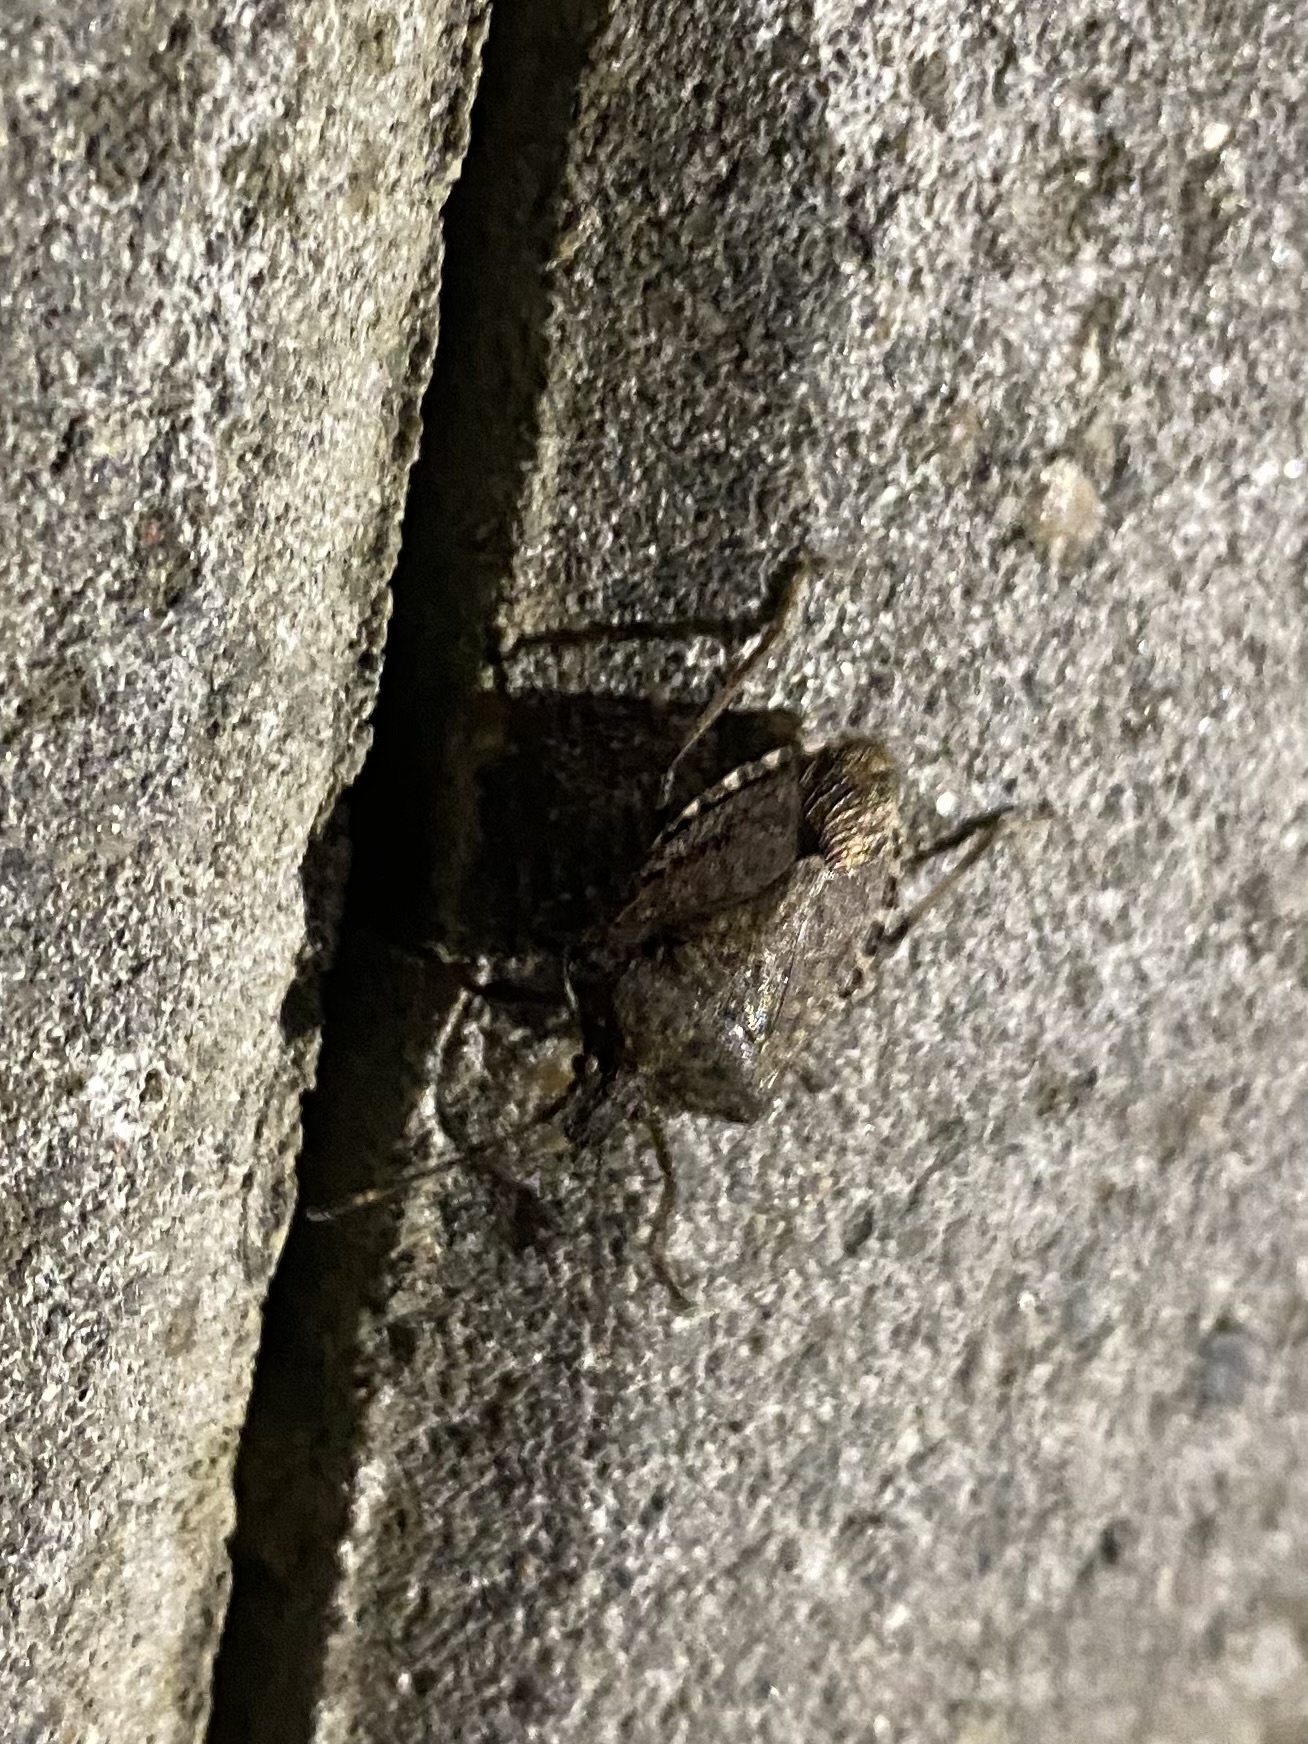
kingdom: Animalia
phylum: Arthropoda
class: Insecta
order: Hemiptera
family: Pentatomidae
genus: Halyomorpha
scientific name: Halyomorpha halys
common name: Brown marmorated stink bug
